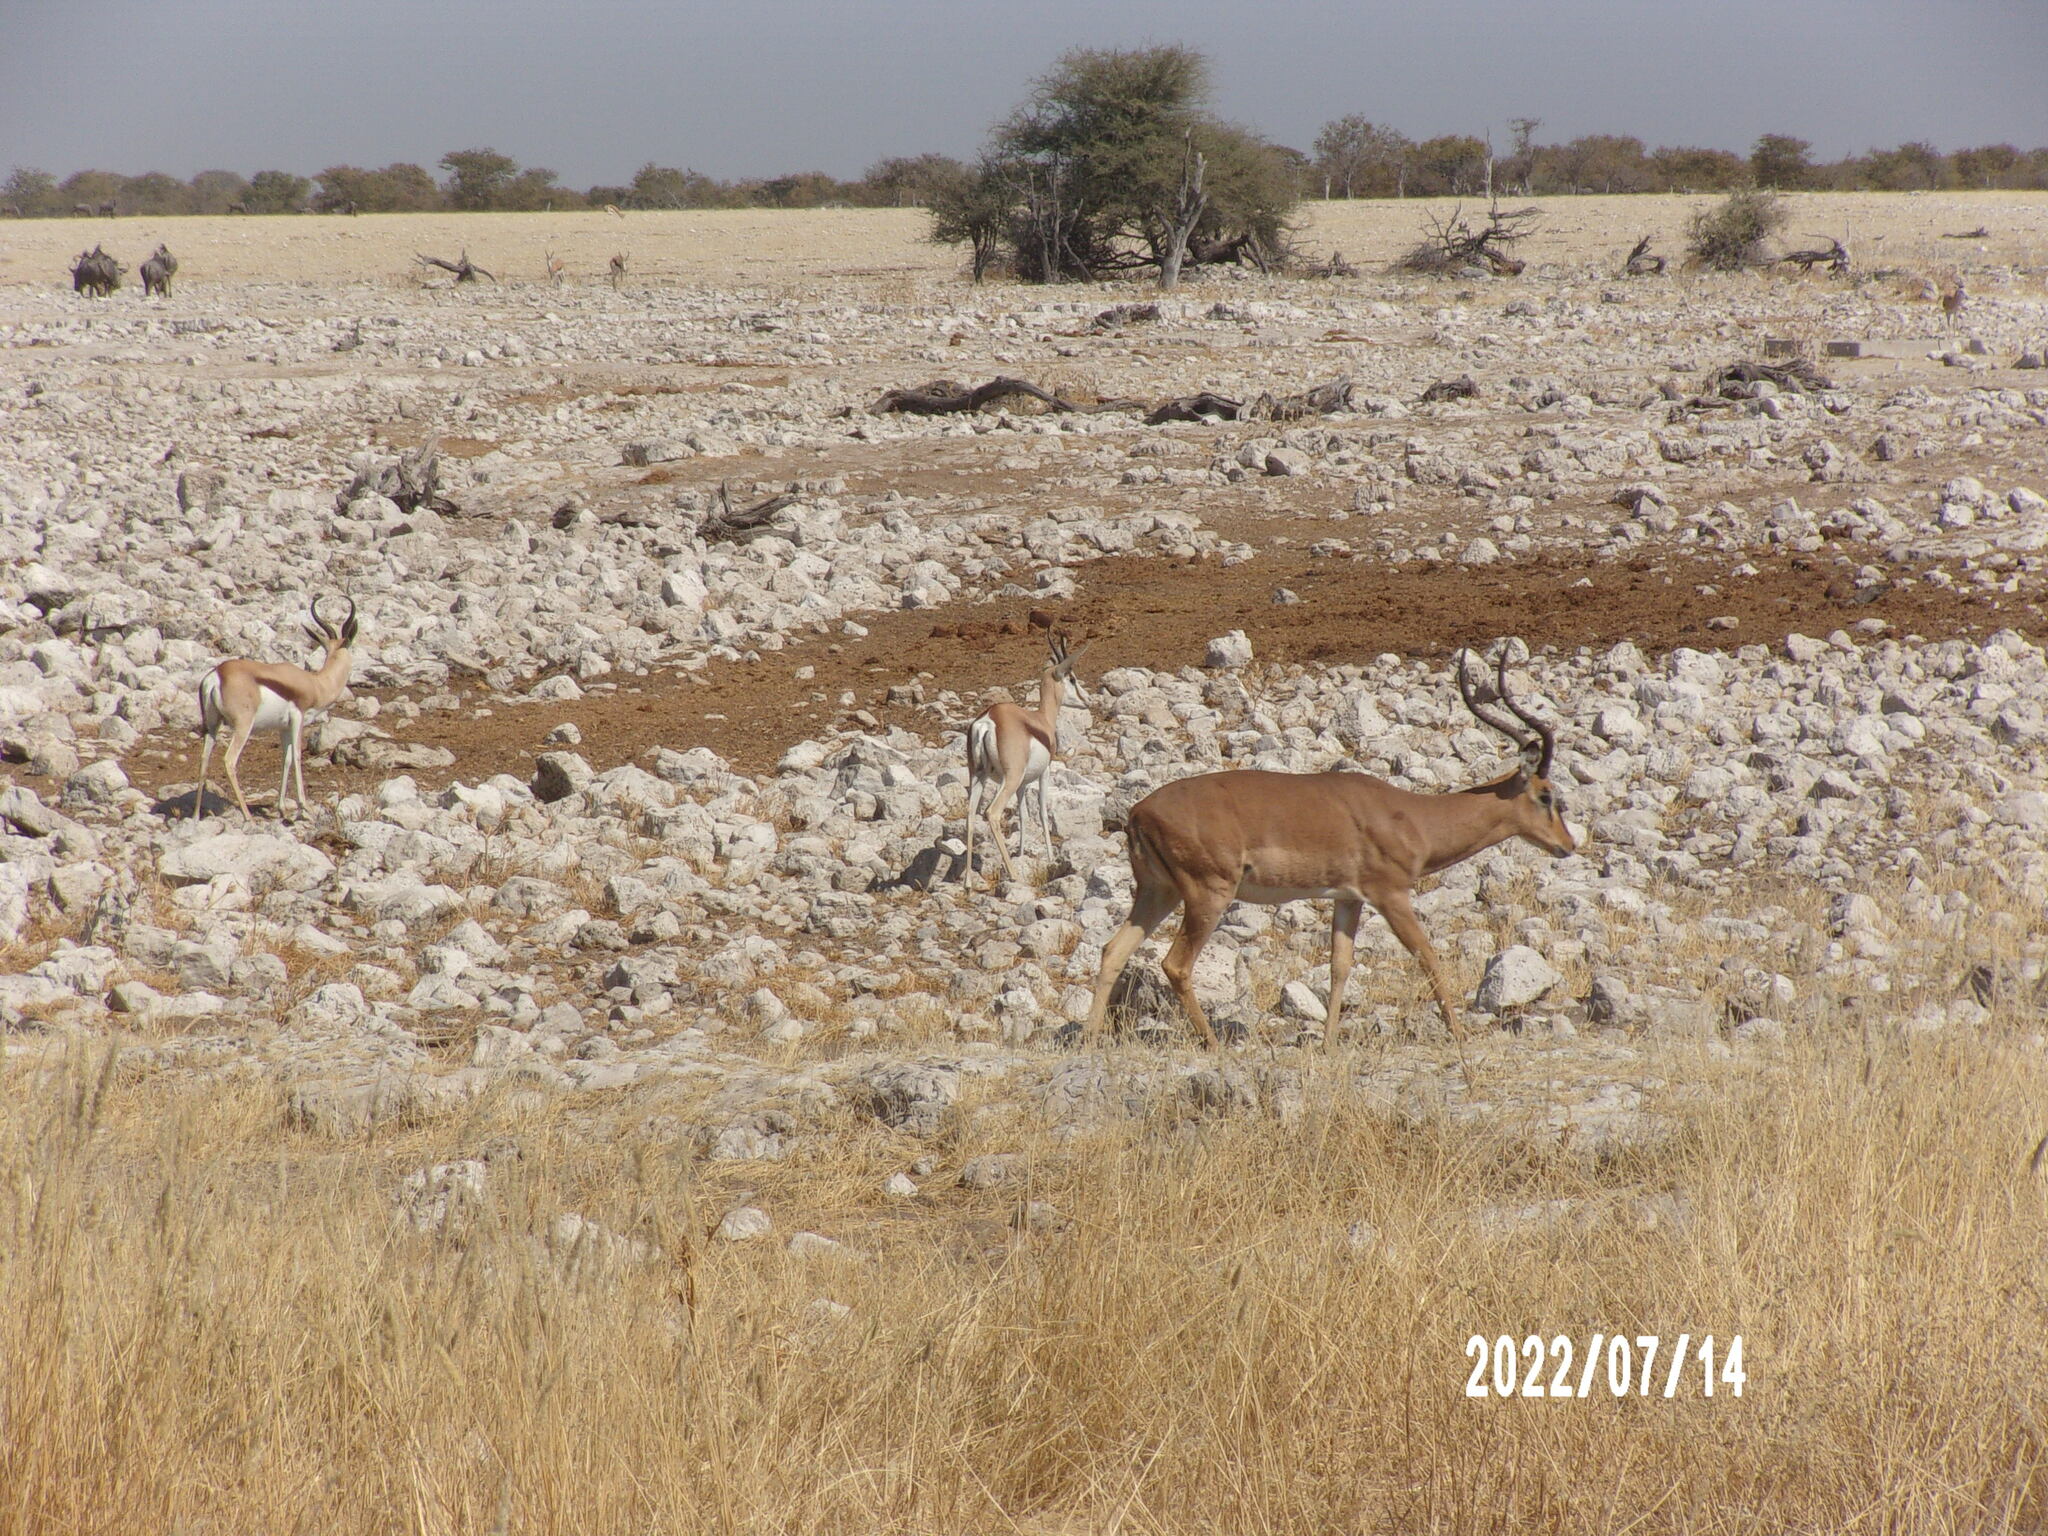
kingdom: Animalia
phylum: Chordata
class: Mammalia
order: Artiodactyla
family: Bovidae
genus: Aepyceros
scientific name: Aepyceros melampus
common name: Impala
